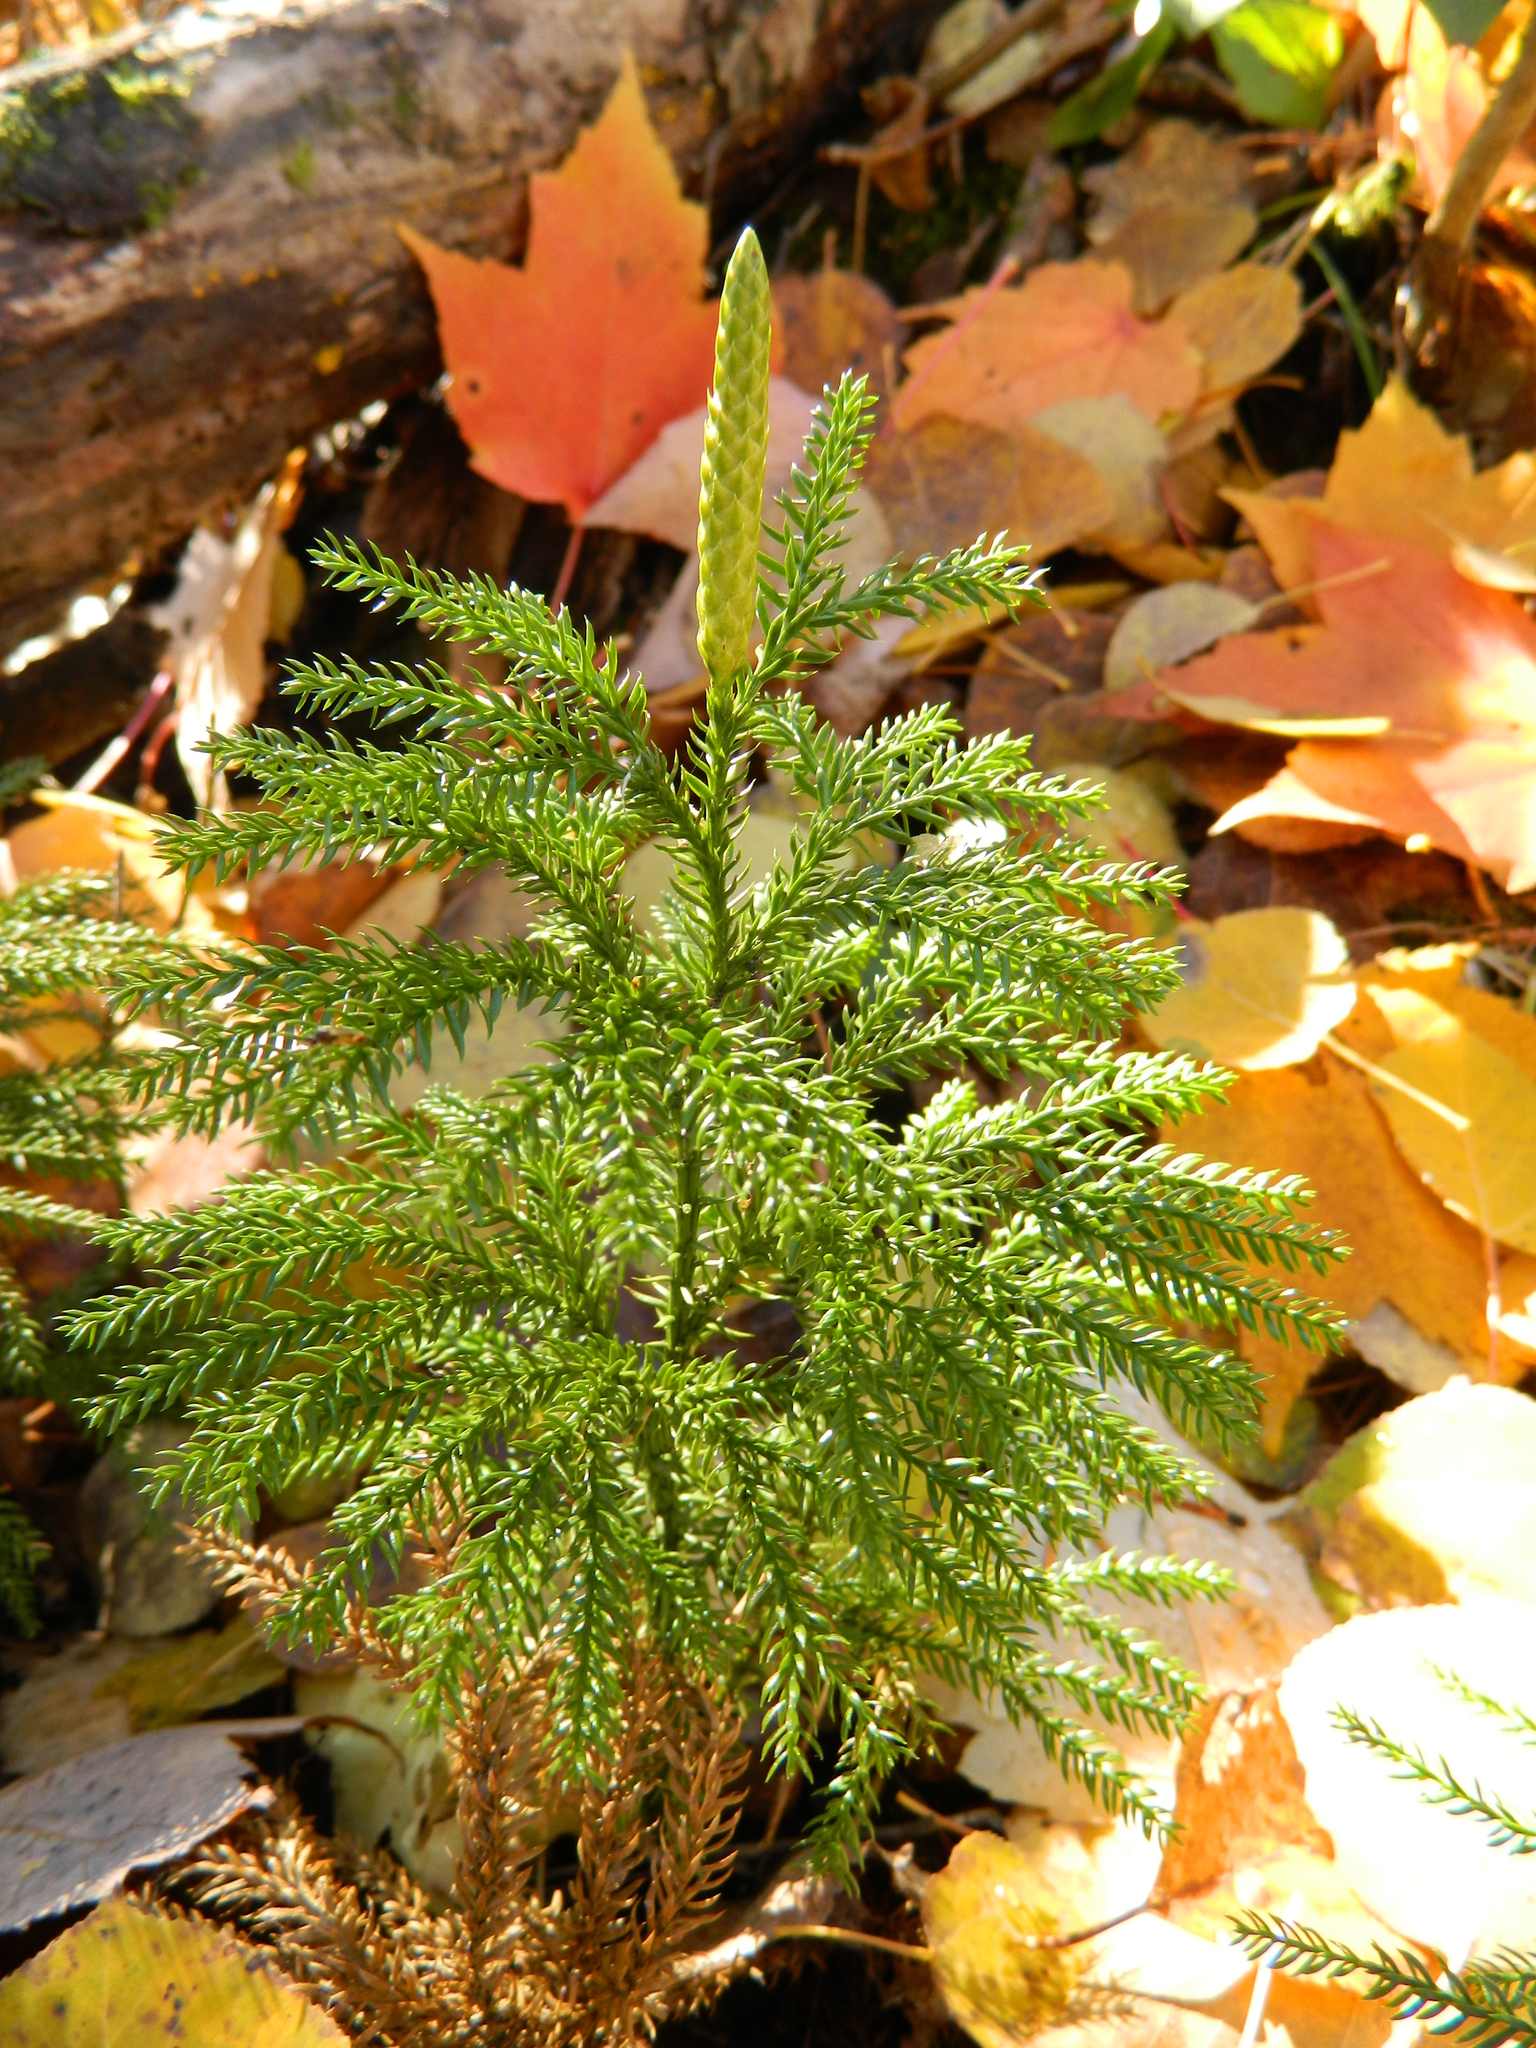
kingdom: Plantae
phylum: Tracheophyta
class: Lycopodiopsida
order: Lycopodiales
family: Lycopodiaceae
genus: Dendrolycopodium
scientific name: Dendrolycopodium dendroideum
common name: Northern tree-clubmoss
